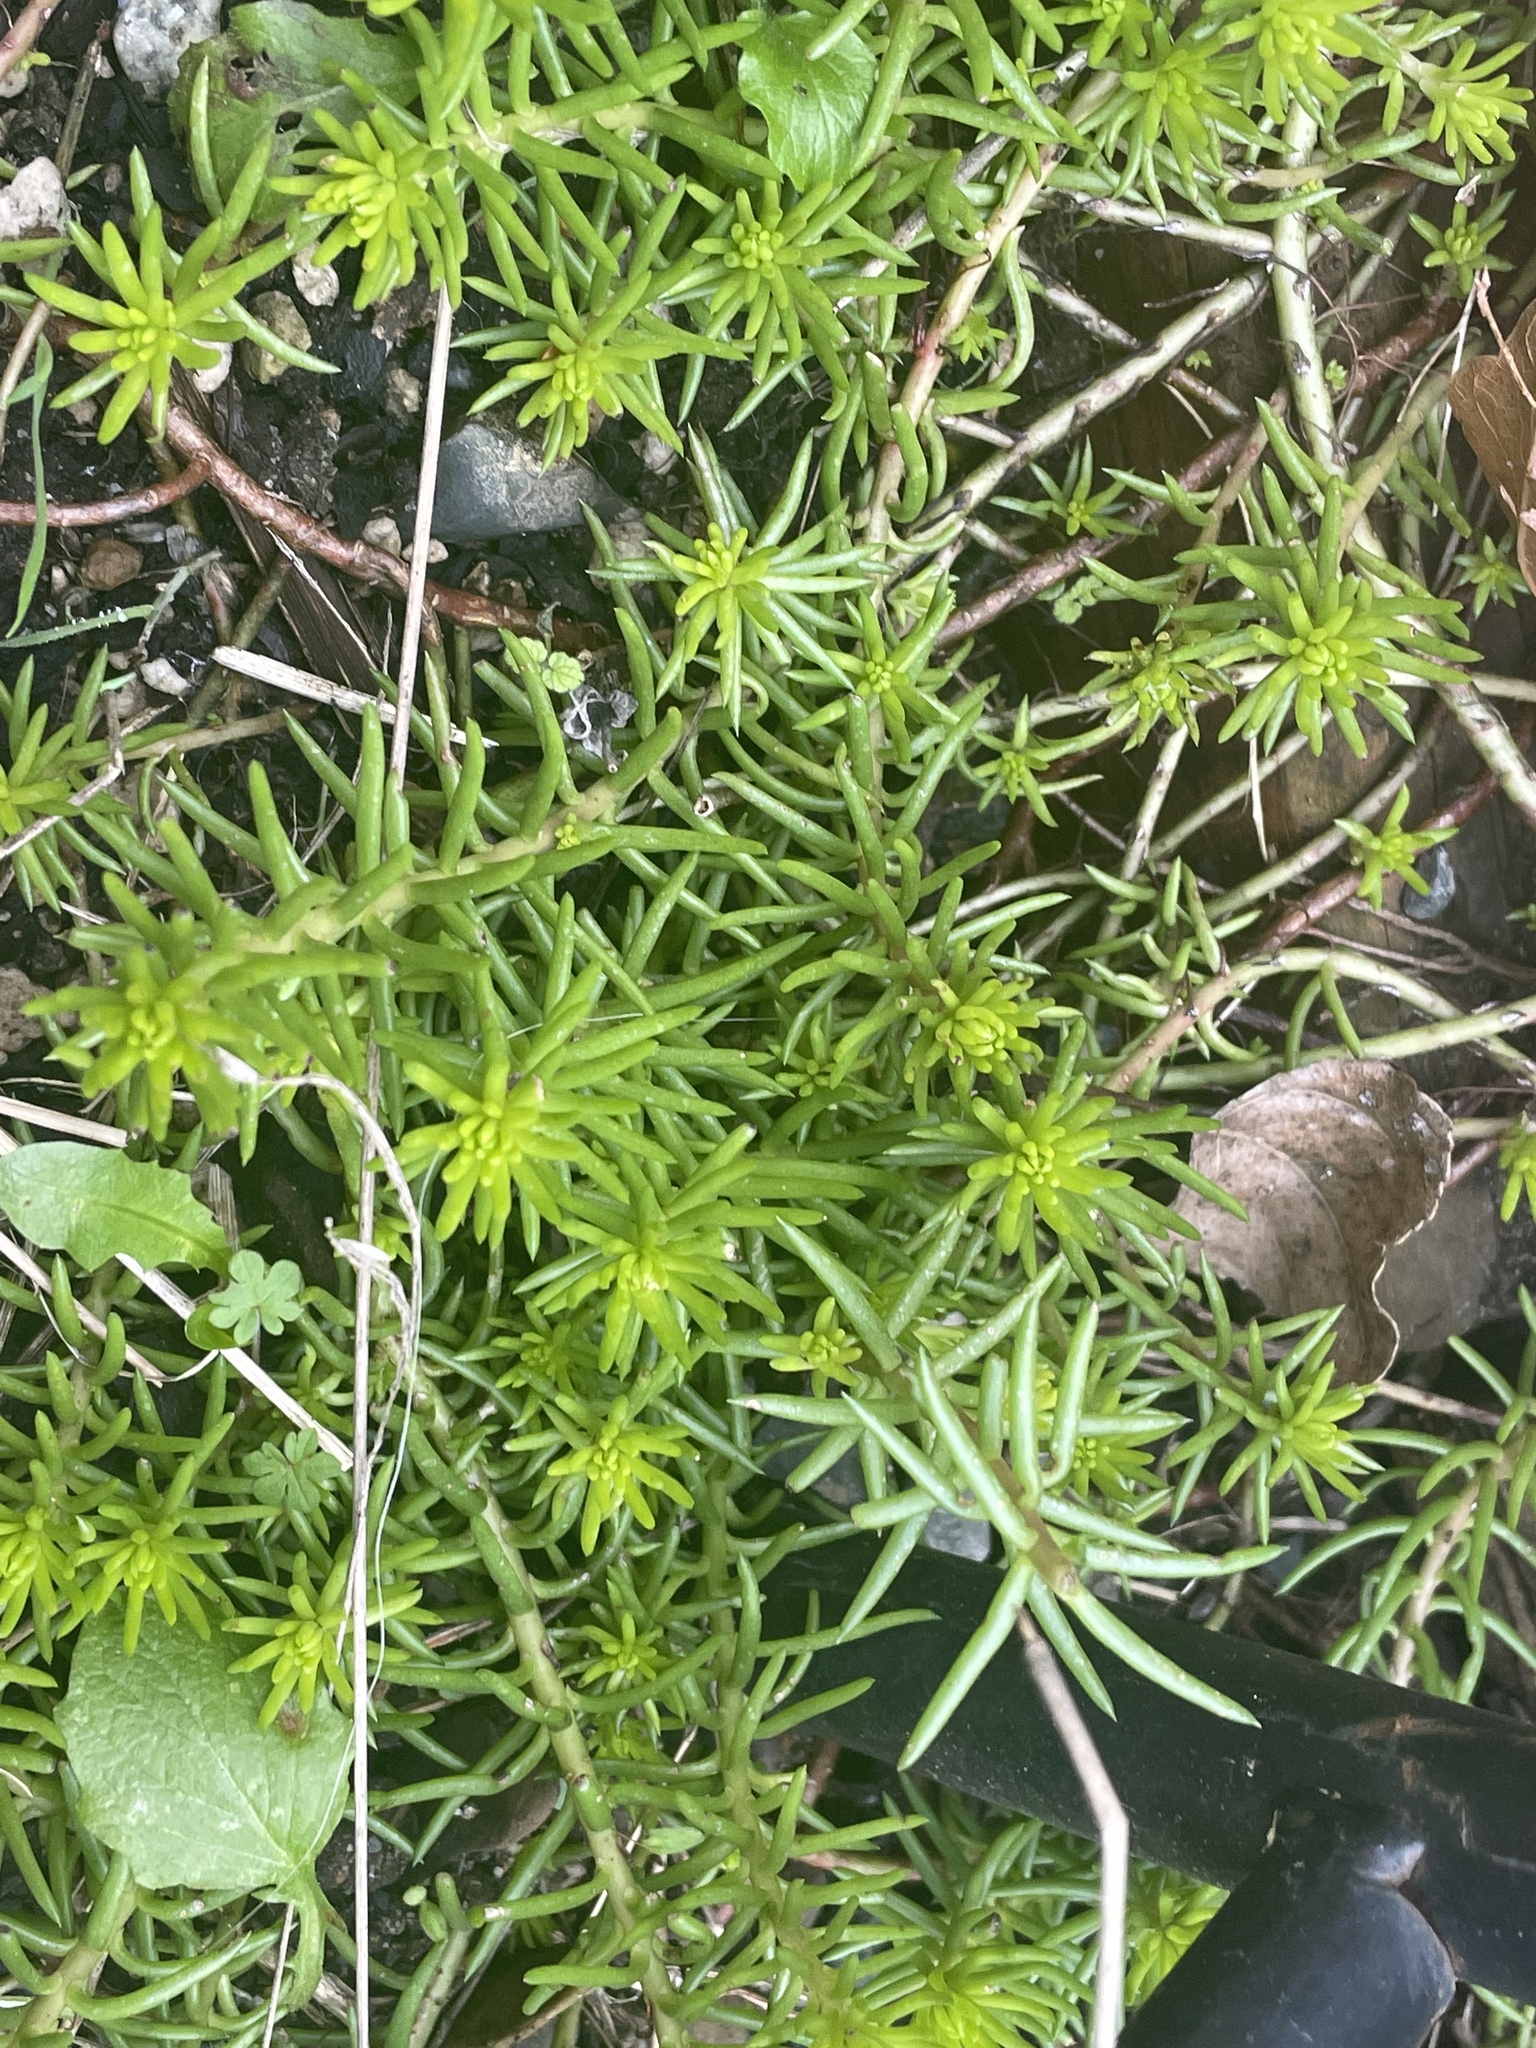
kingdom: Plantae
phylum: Tracheophyta
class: Magnoliopsida
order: Saxifragales
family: Crassulaceae
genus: Petrosedum
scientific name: Petrosedum rupestre
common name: Jenny's stonecrop
